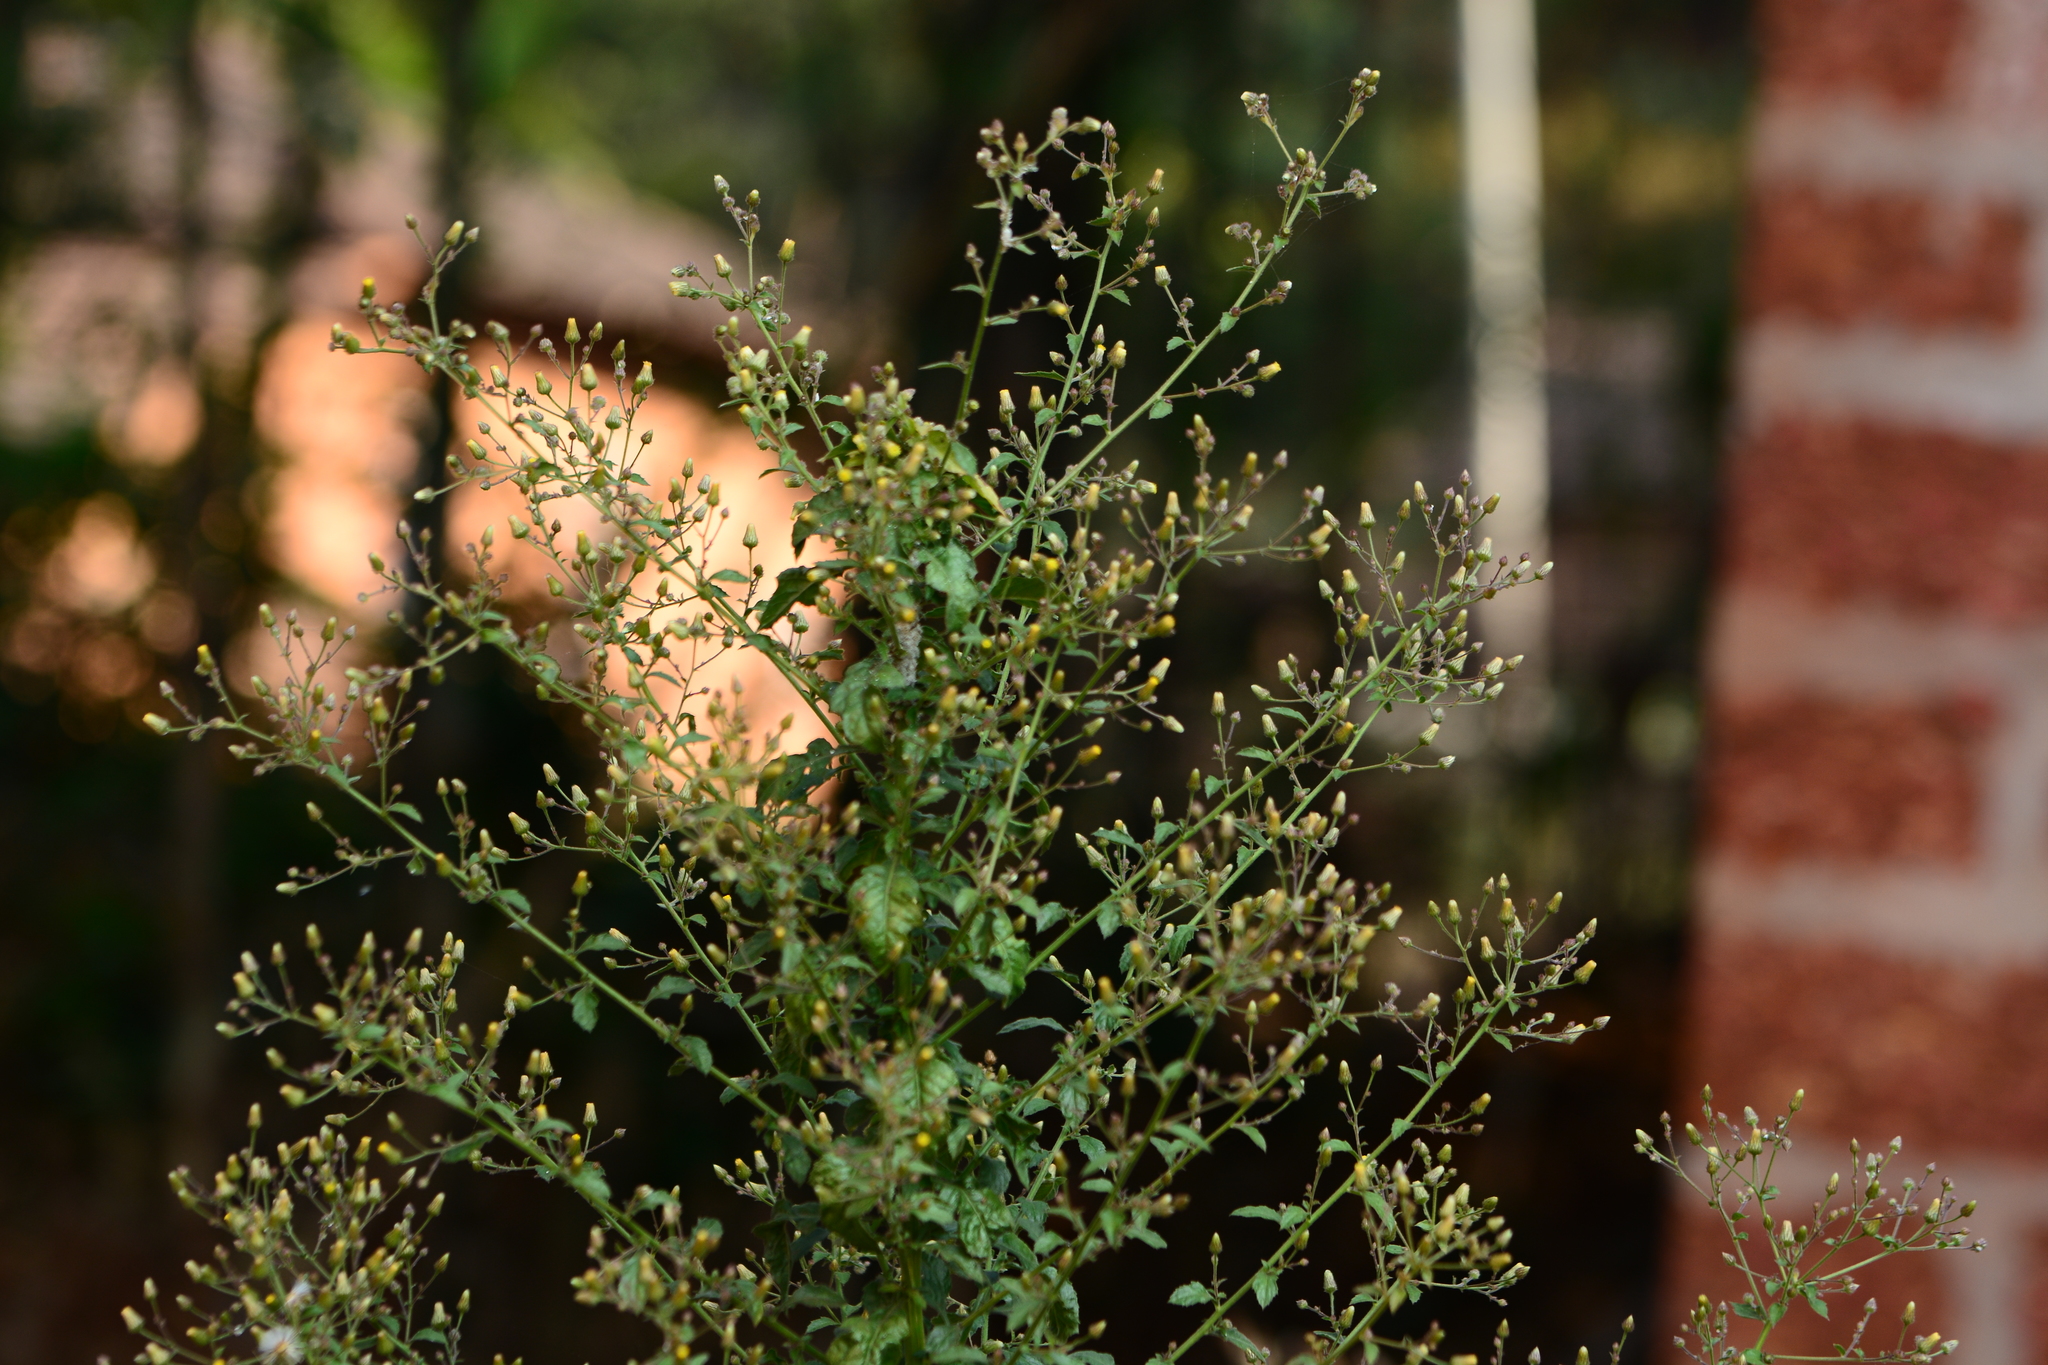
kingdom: Plantae
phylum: Tracheophyta
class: Magnoliopsida
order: Asterales
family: Asteraceae
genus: Pluchea
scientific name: Pluchea paniculata
